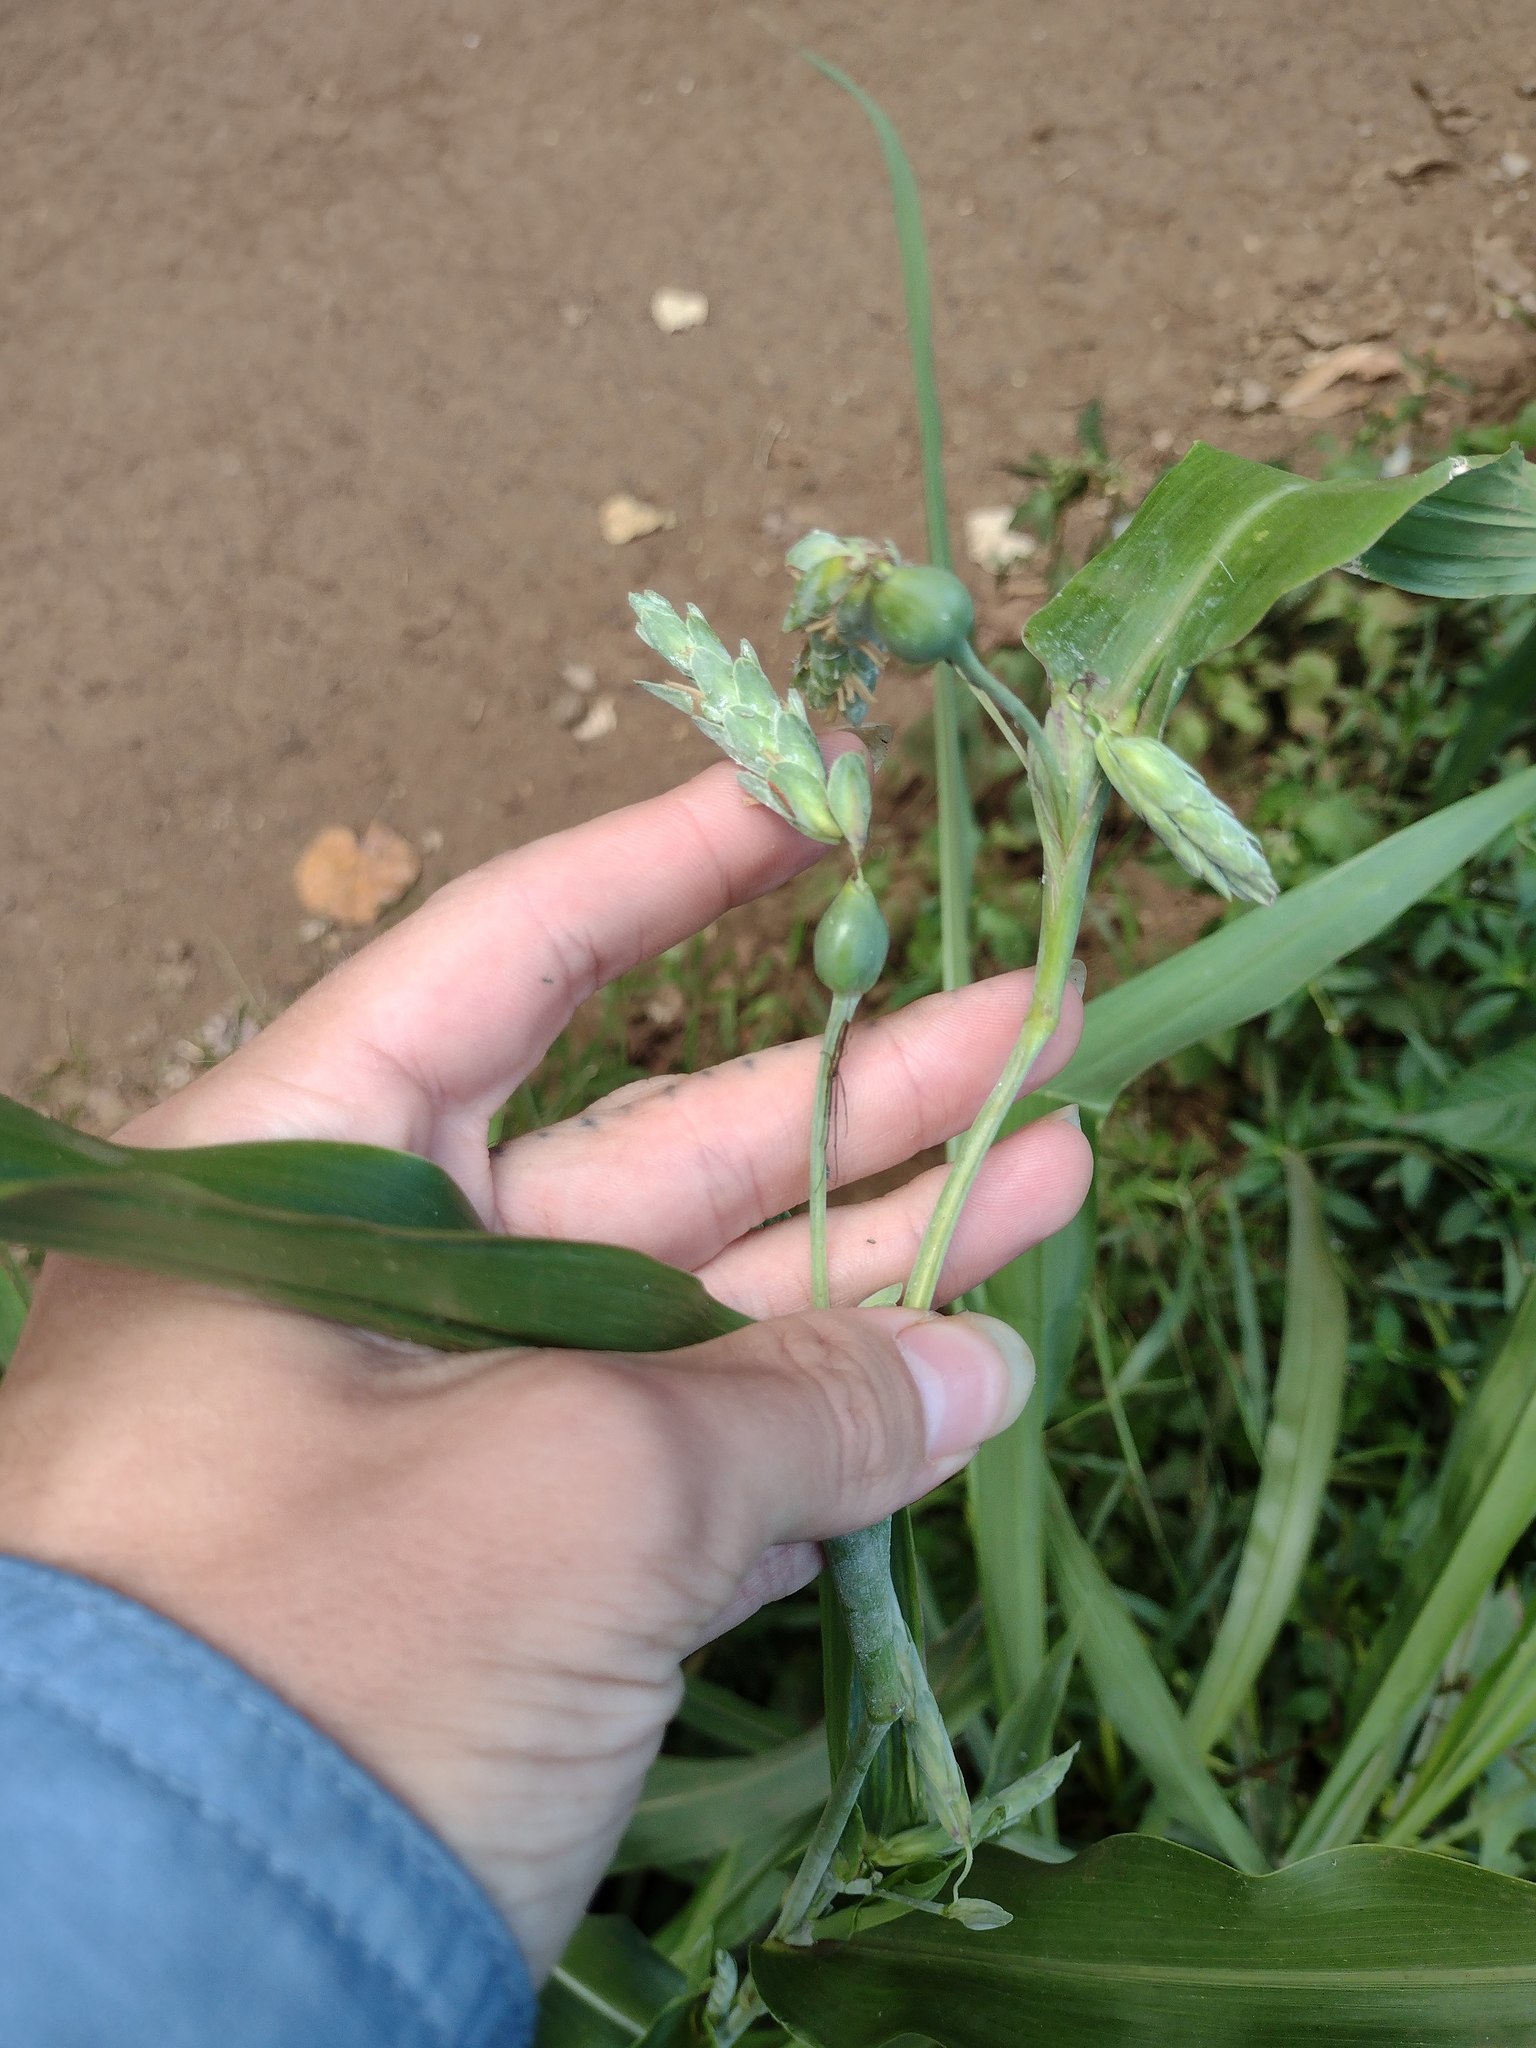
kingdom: Plantae
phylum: Tracheophyta
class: Liliopsida
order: Poales
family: Poaceae
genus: Coix
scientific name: Coix lacryma-jobi
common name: Job's tears
